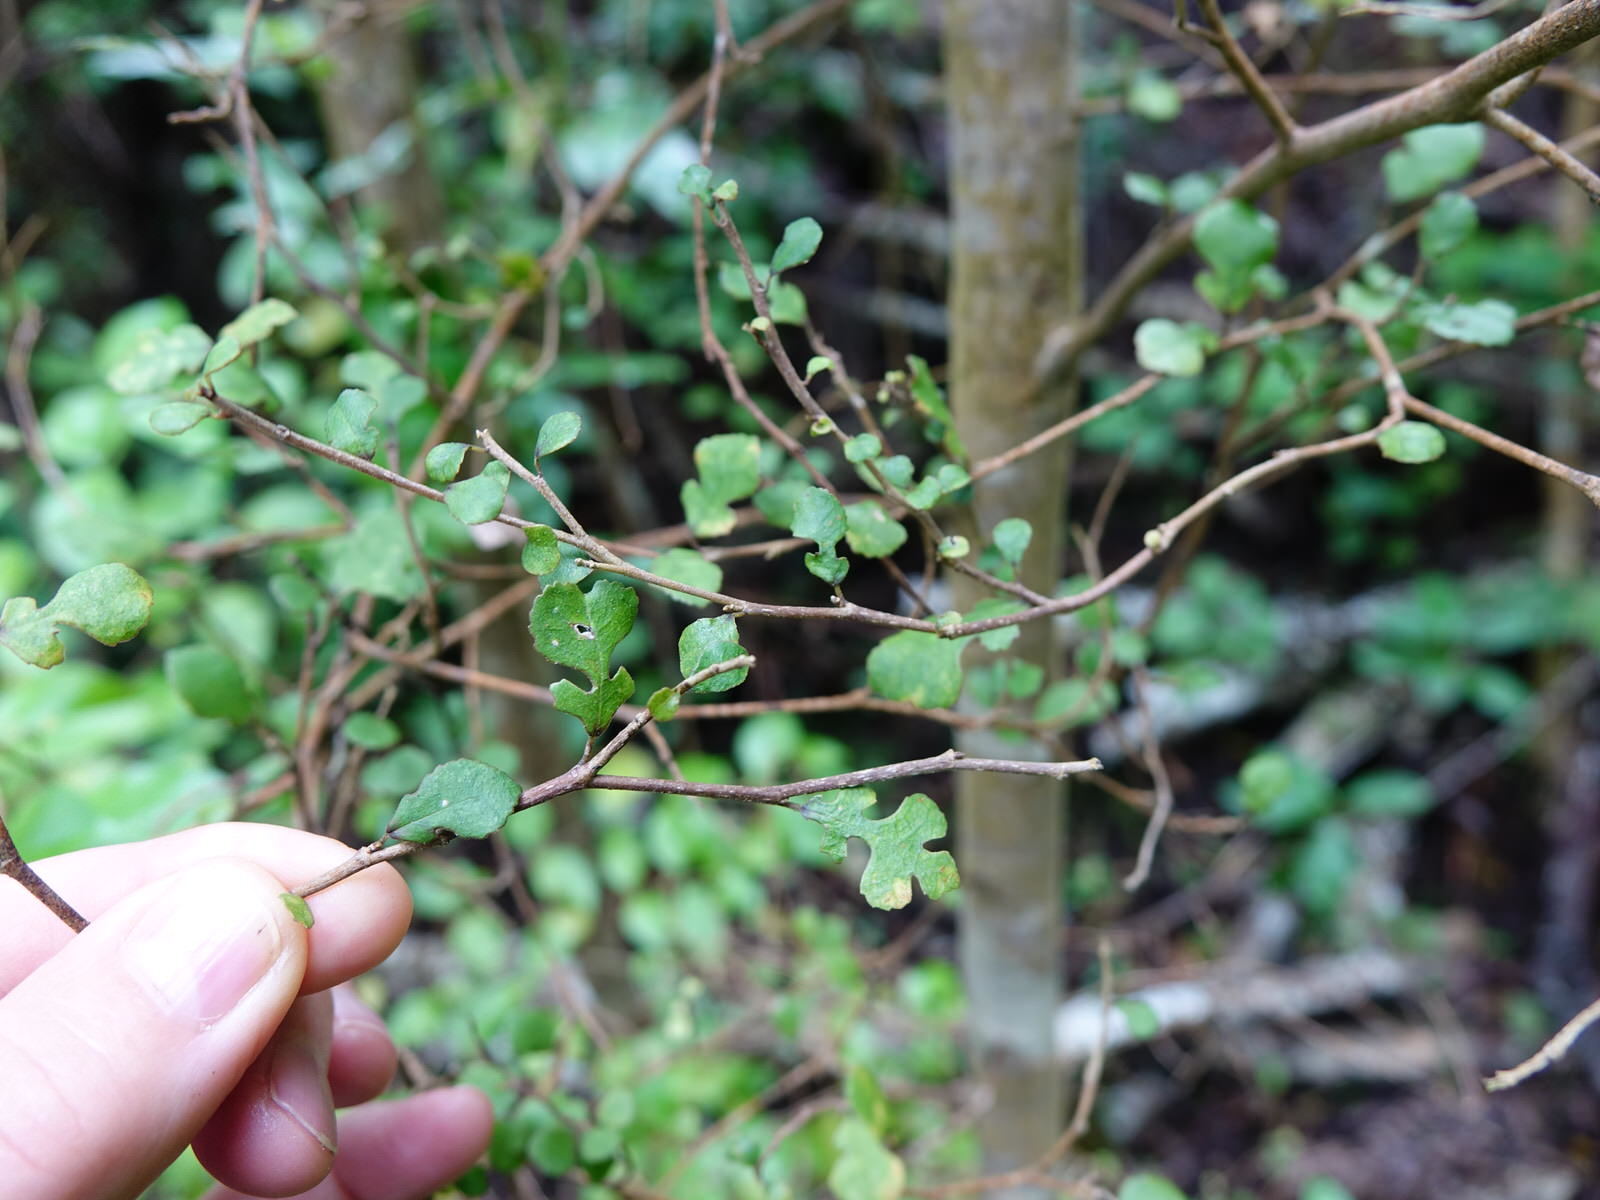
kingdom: Plantae
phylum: Tracheophyta
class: Magnoliopsida
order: Rosales
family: Moraceae
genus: Paratrophis
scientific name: Paratrophis microphylla
